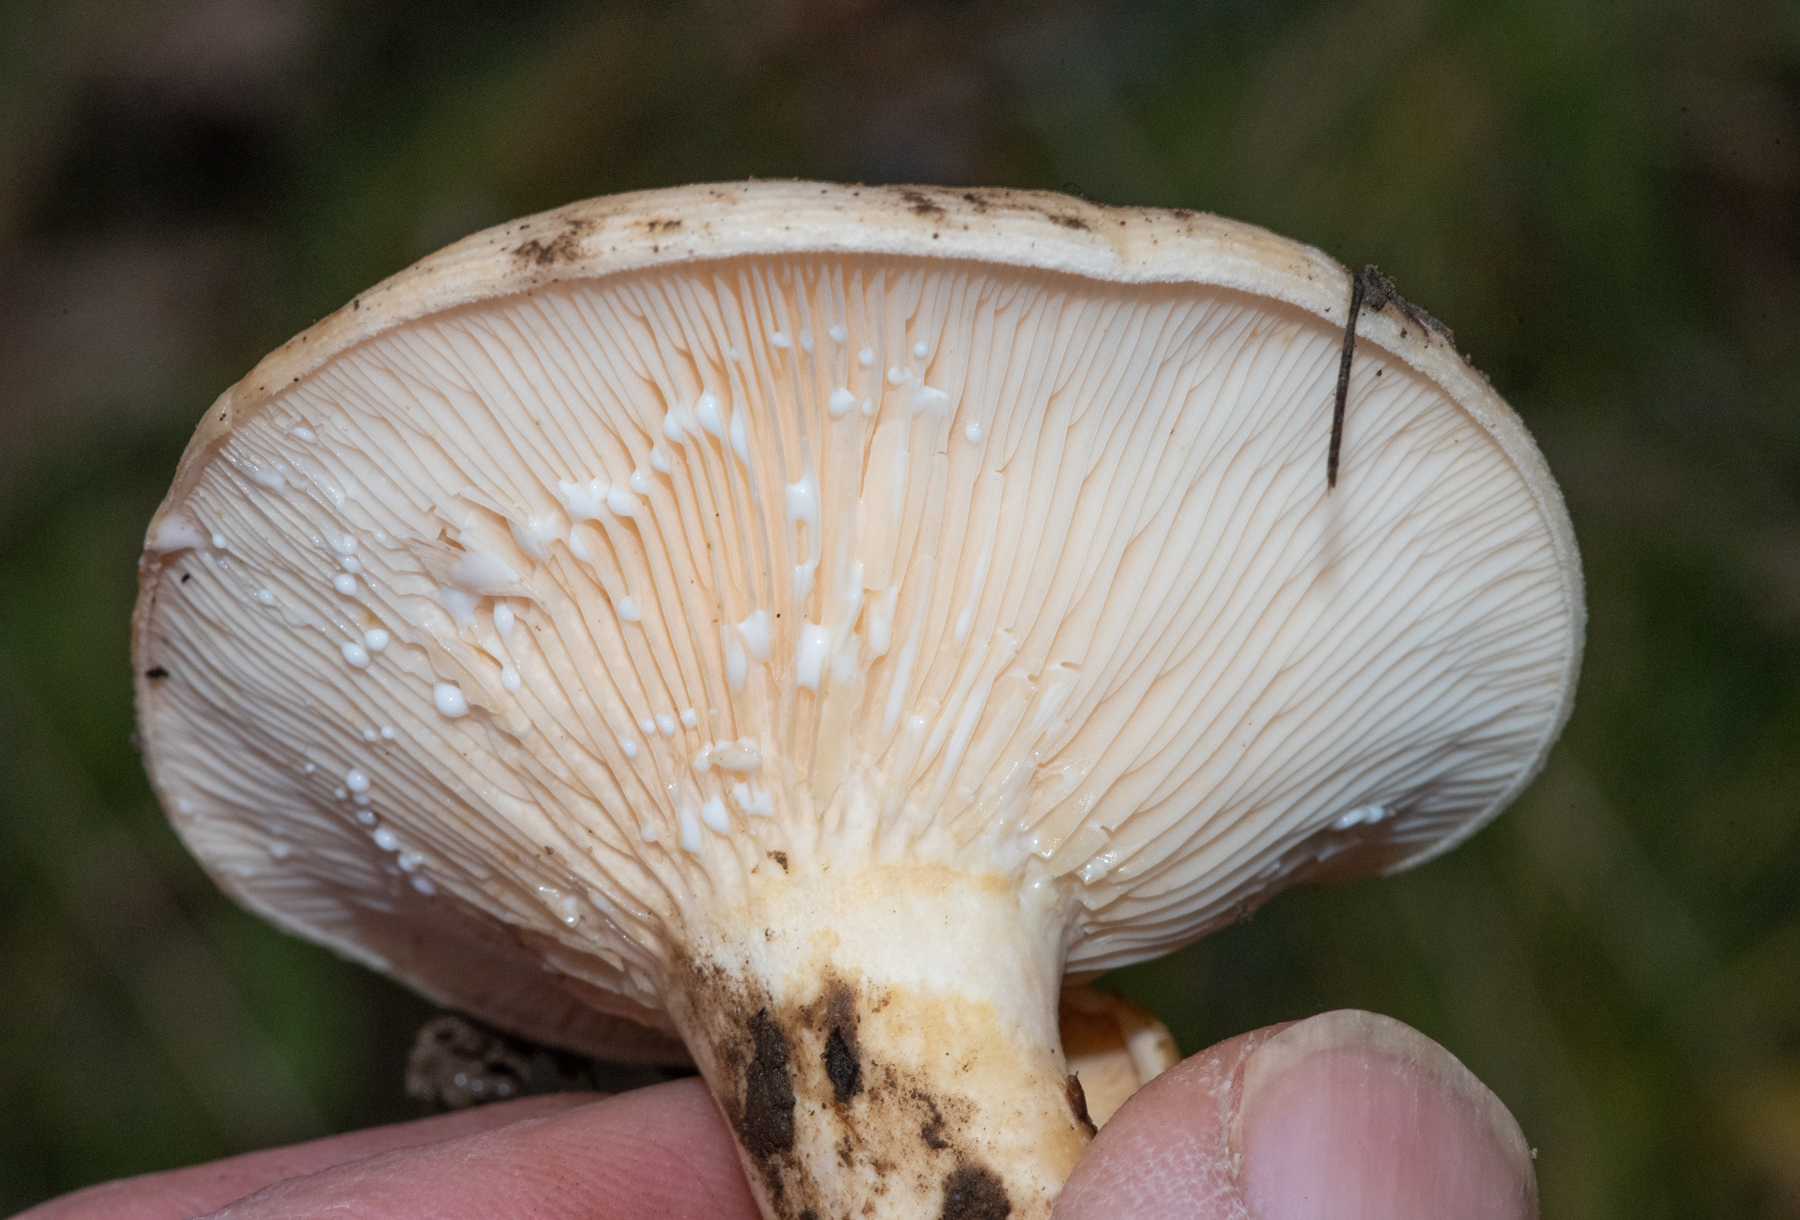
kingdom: Fungi
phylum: Basidiomycota
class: Agaricomycetes
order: Russulales
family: Russulaceae
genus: Lactarius
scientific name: Lactarius alnicola
